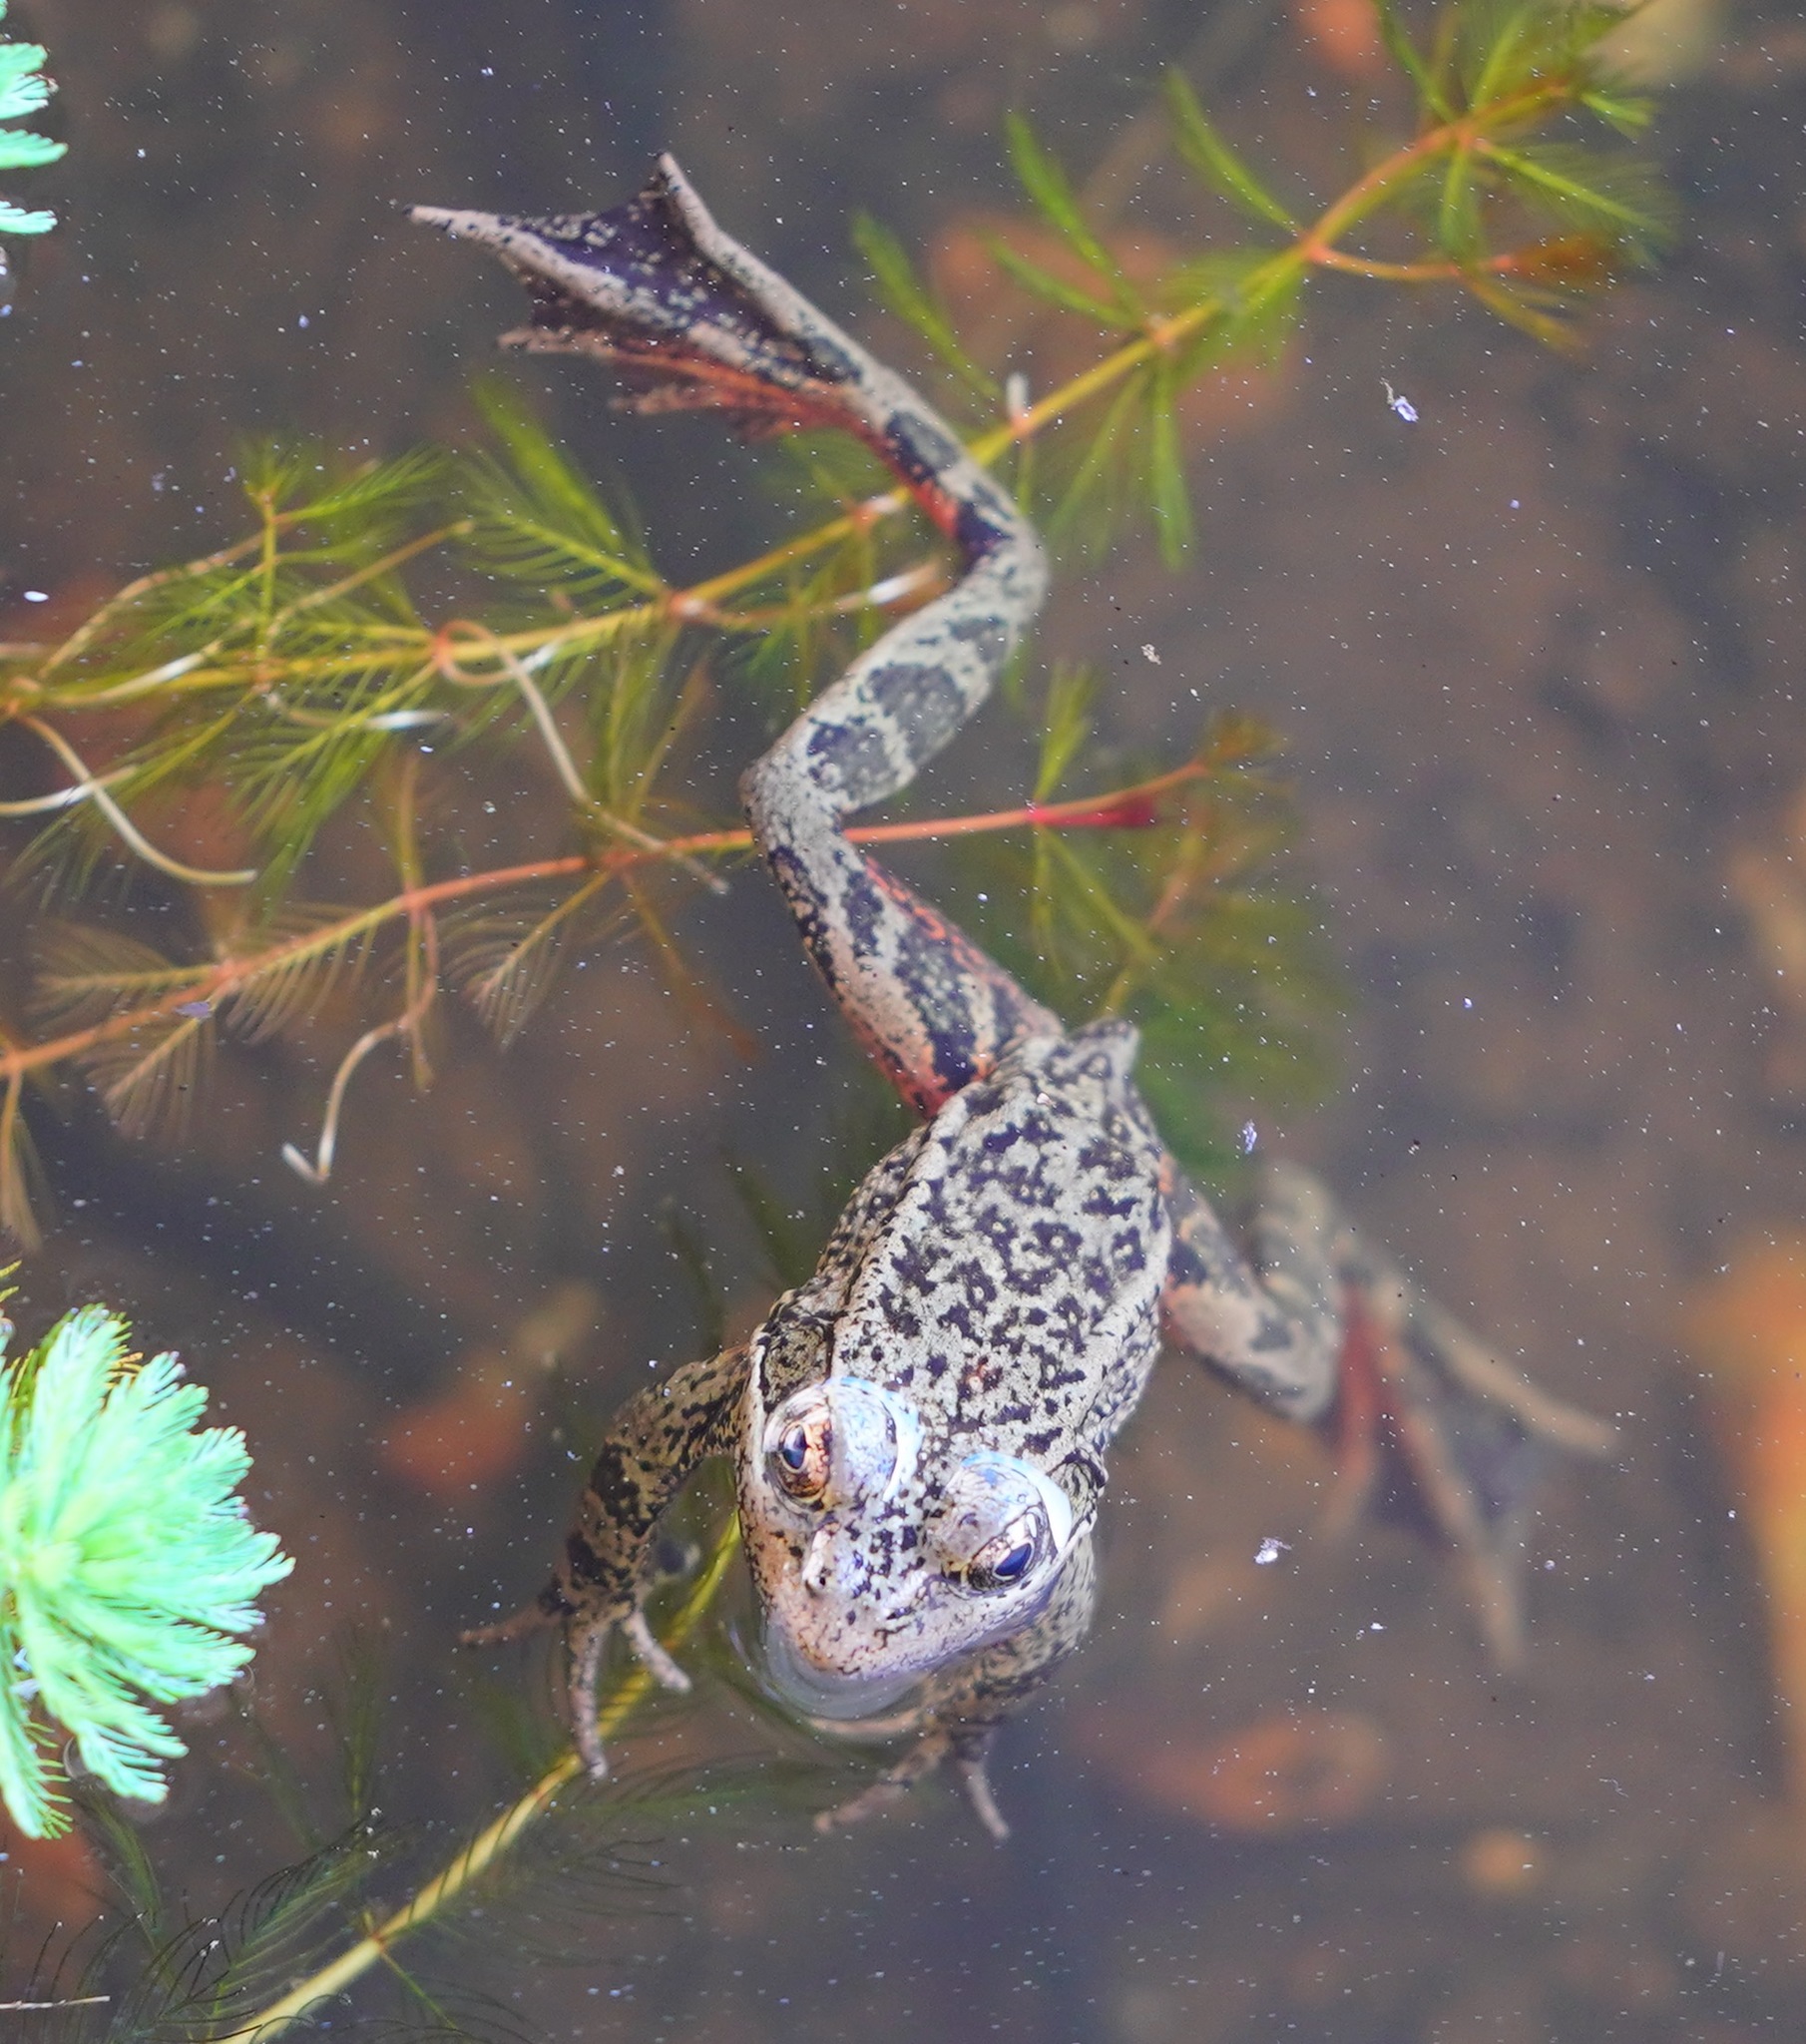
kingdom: Animalia
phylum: Chordata
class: Amphibia
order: Anura
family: Ranidae
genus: Rana
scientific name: Rana draytonii
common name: California red-legged frog
